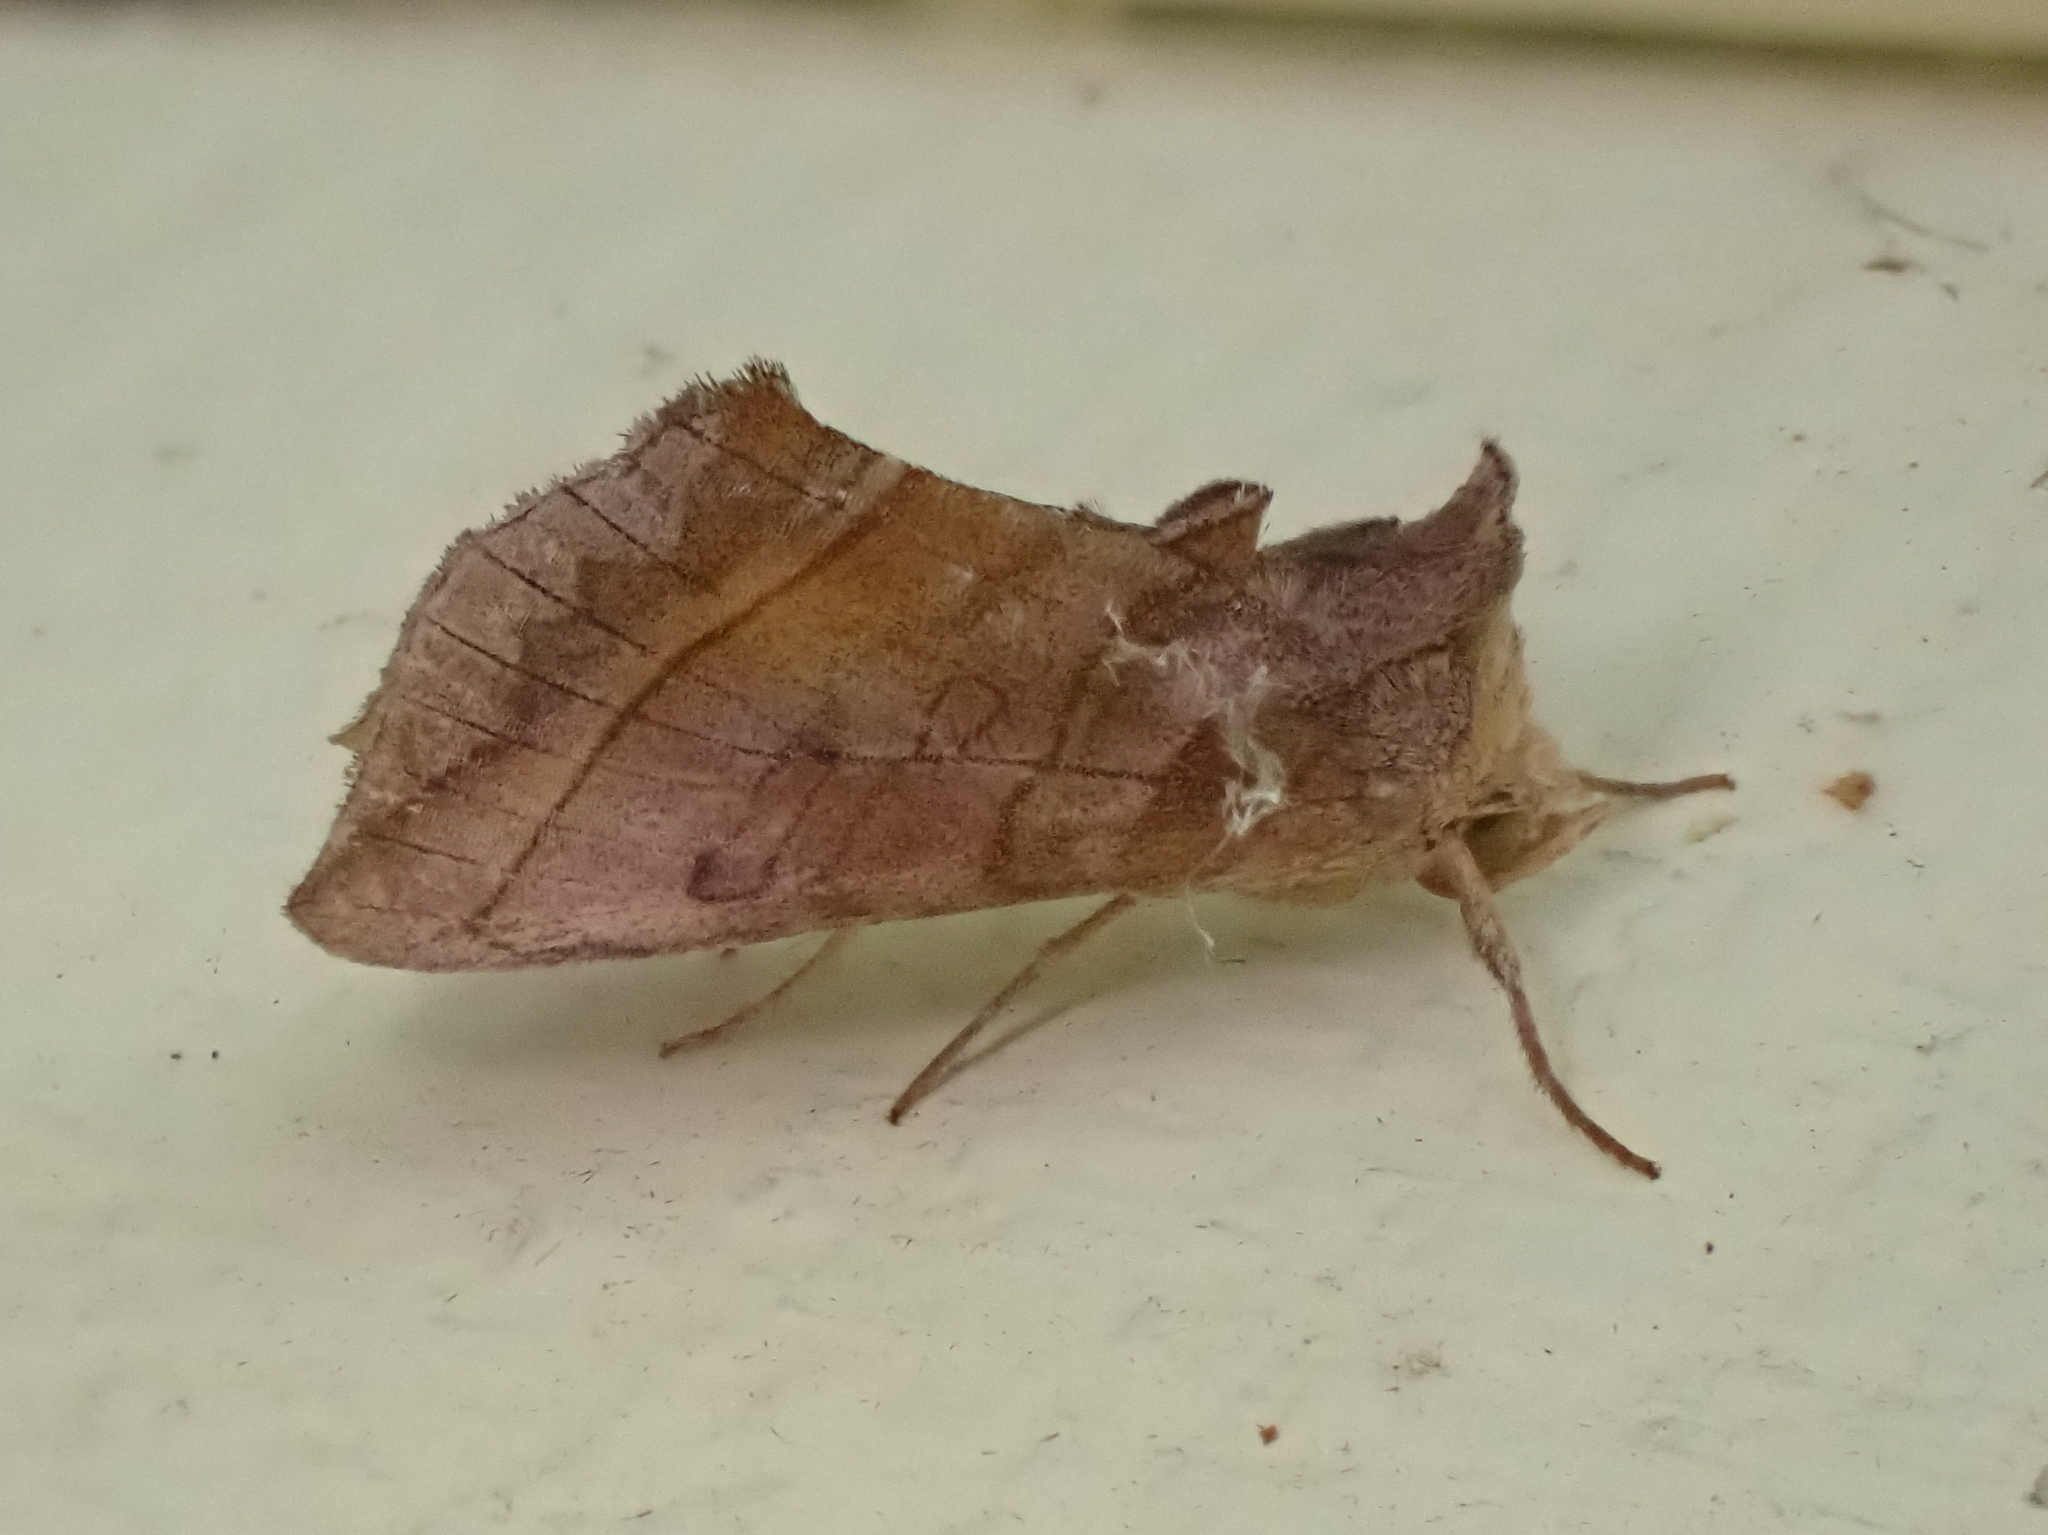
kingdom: Animalia
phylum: Arthropoda
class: Insecta
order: Lepidoptera
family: Noctuidae
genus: Diachrysia
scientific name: Diachrysia aereoides
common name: Dark-spotted looper moth
